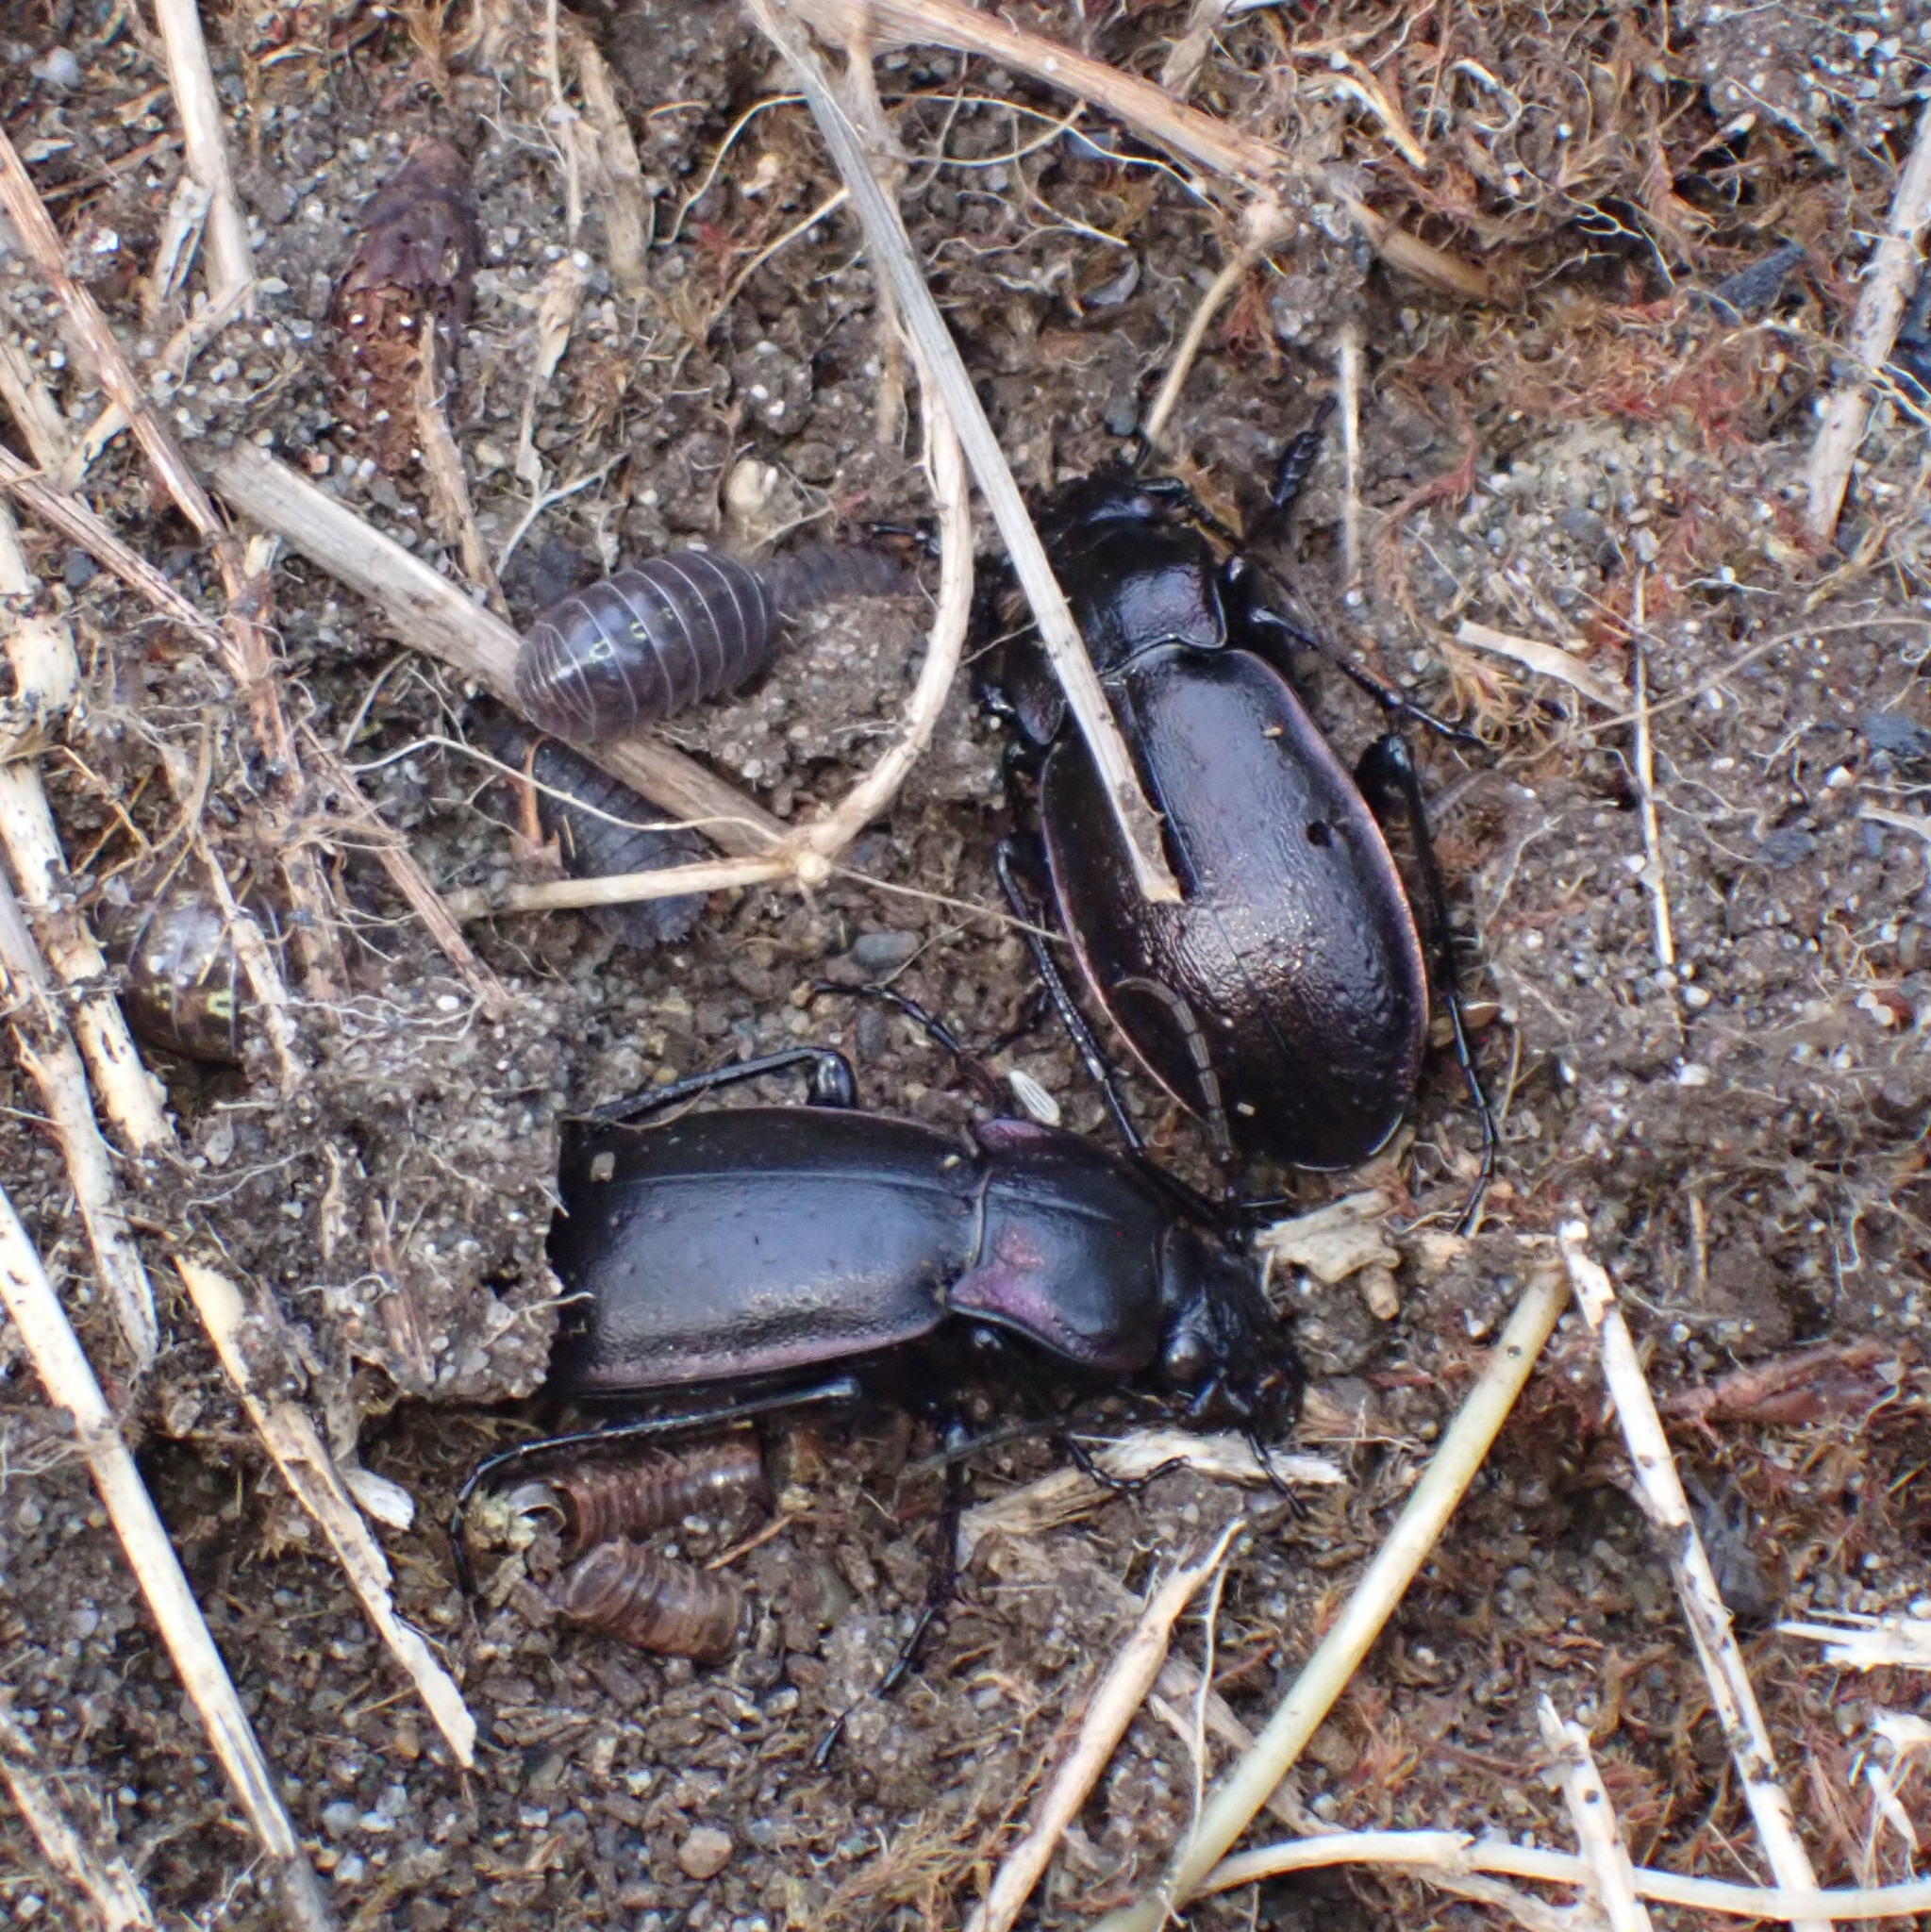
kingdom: Animalia
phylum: Arthropoda
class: Insecta
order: Coleoptera
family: Carabidae
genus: Carabus
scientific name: Carabus nemoralis
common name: European ground beetle
